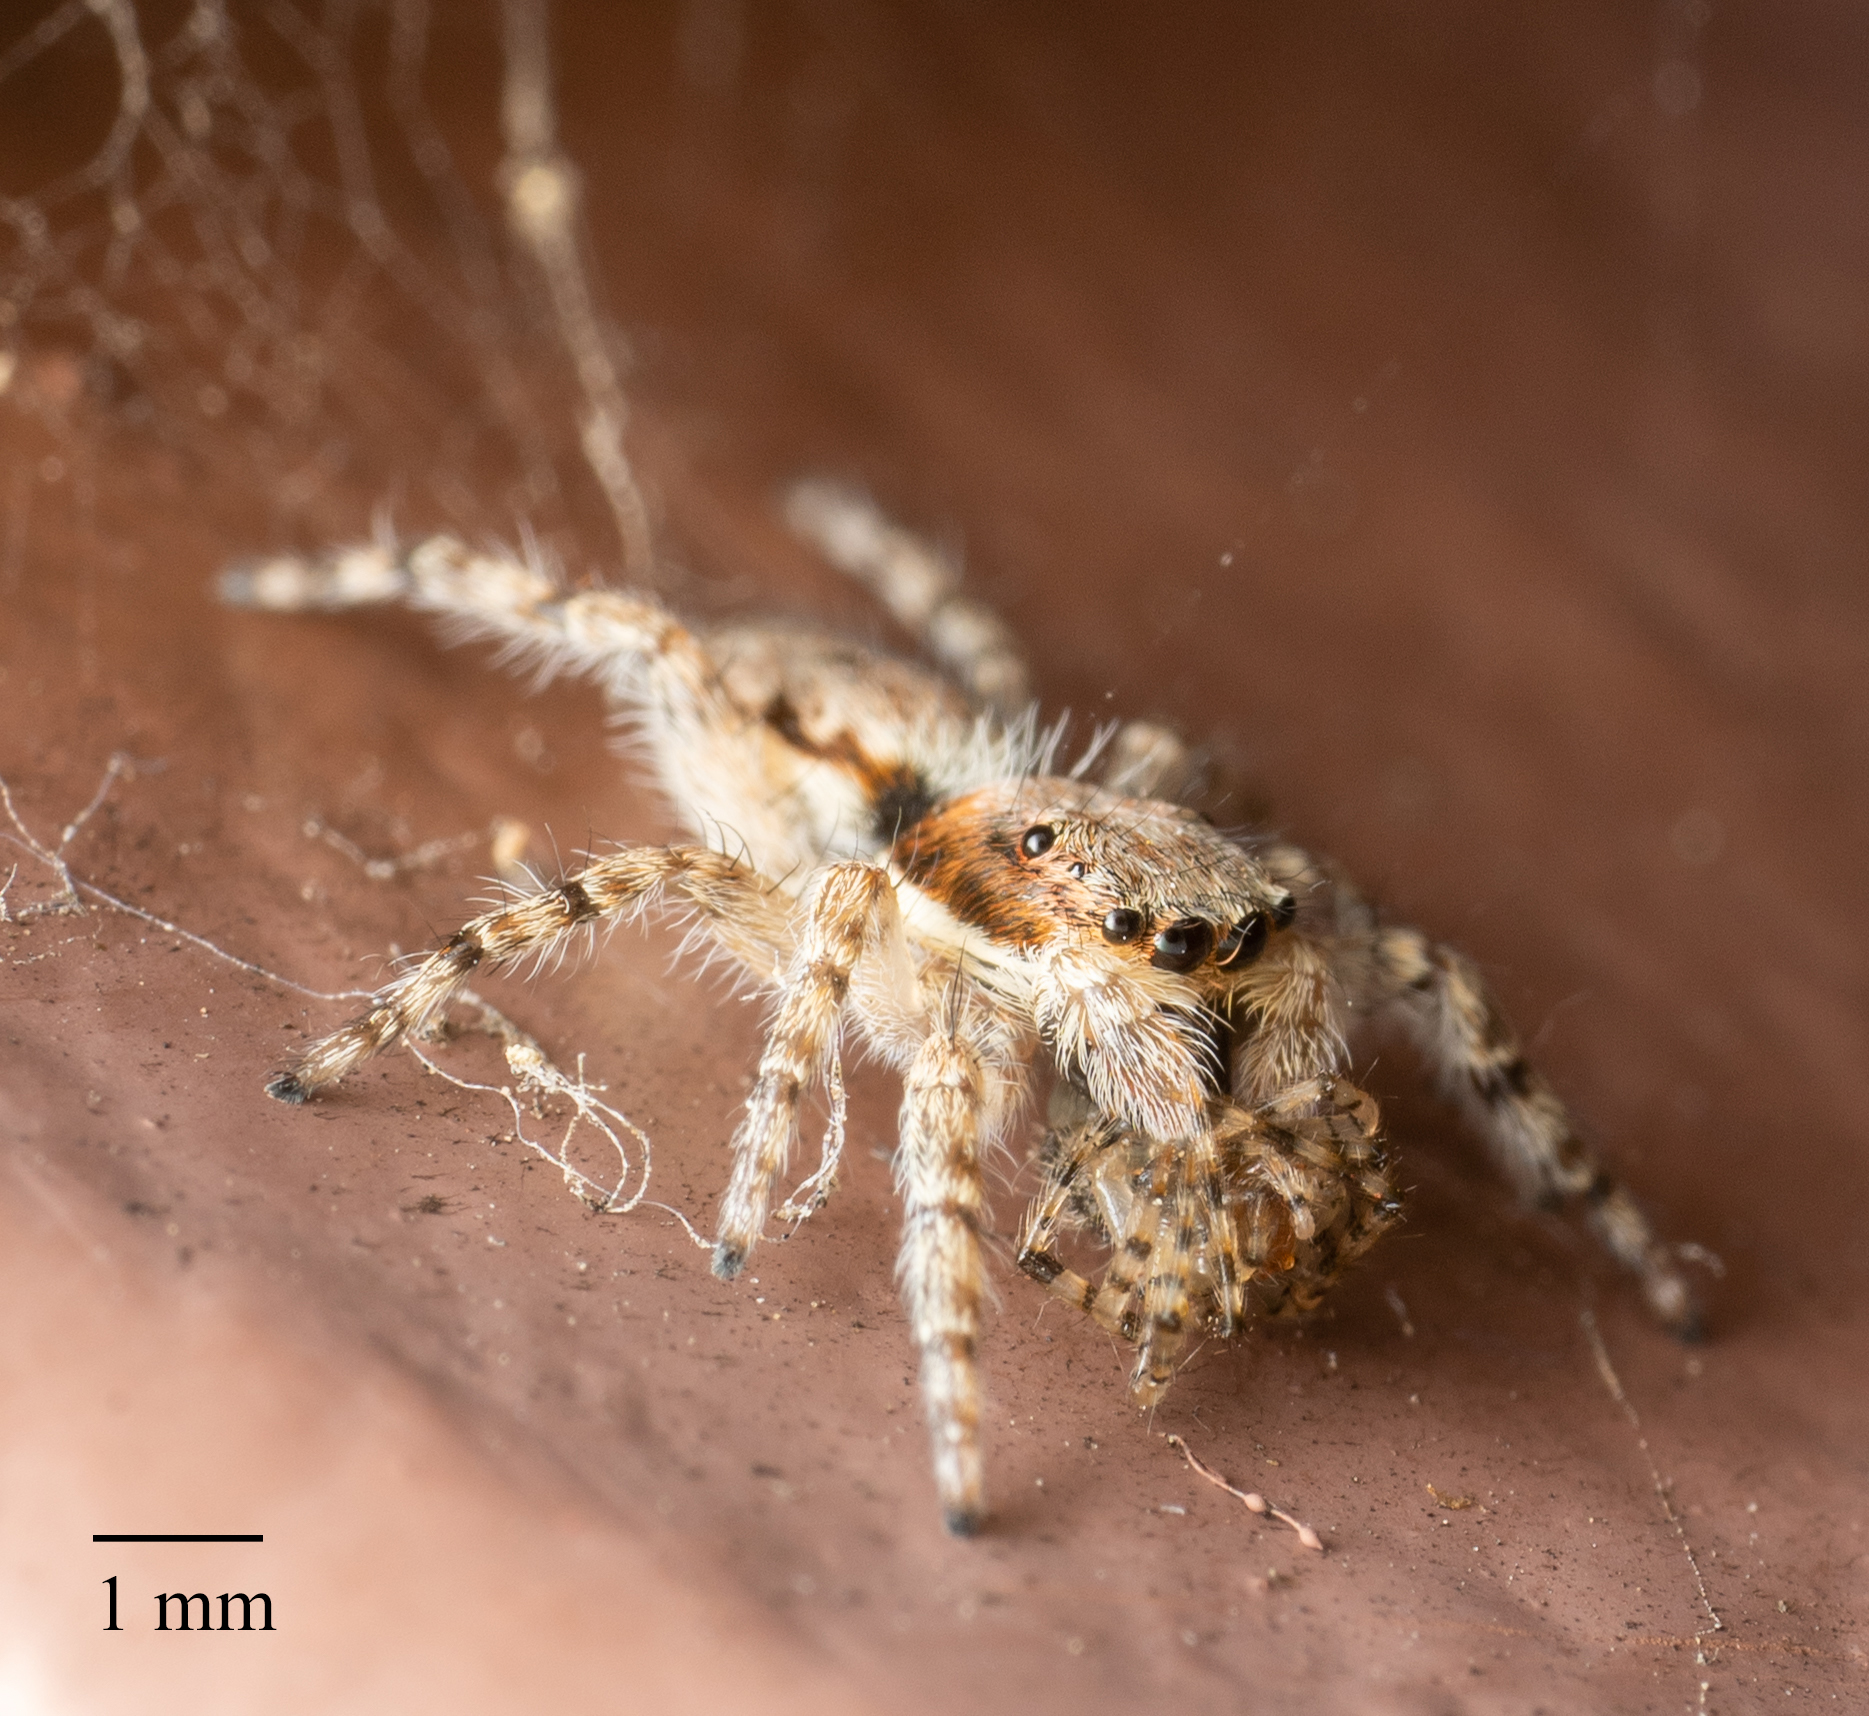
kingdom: Animalia
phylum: Arthropoda
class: Arachnida
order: Araneae
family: Salticidae
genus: Menemerus
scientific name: Menemerus bivittatus
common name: Gray wall jumper
